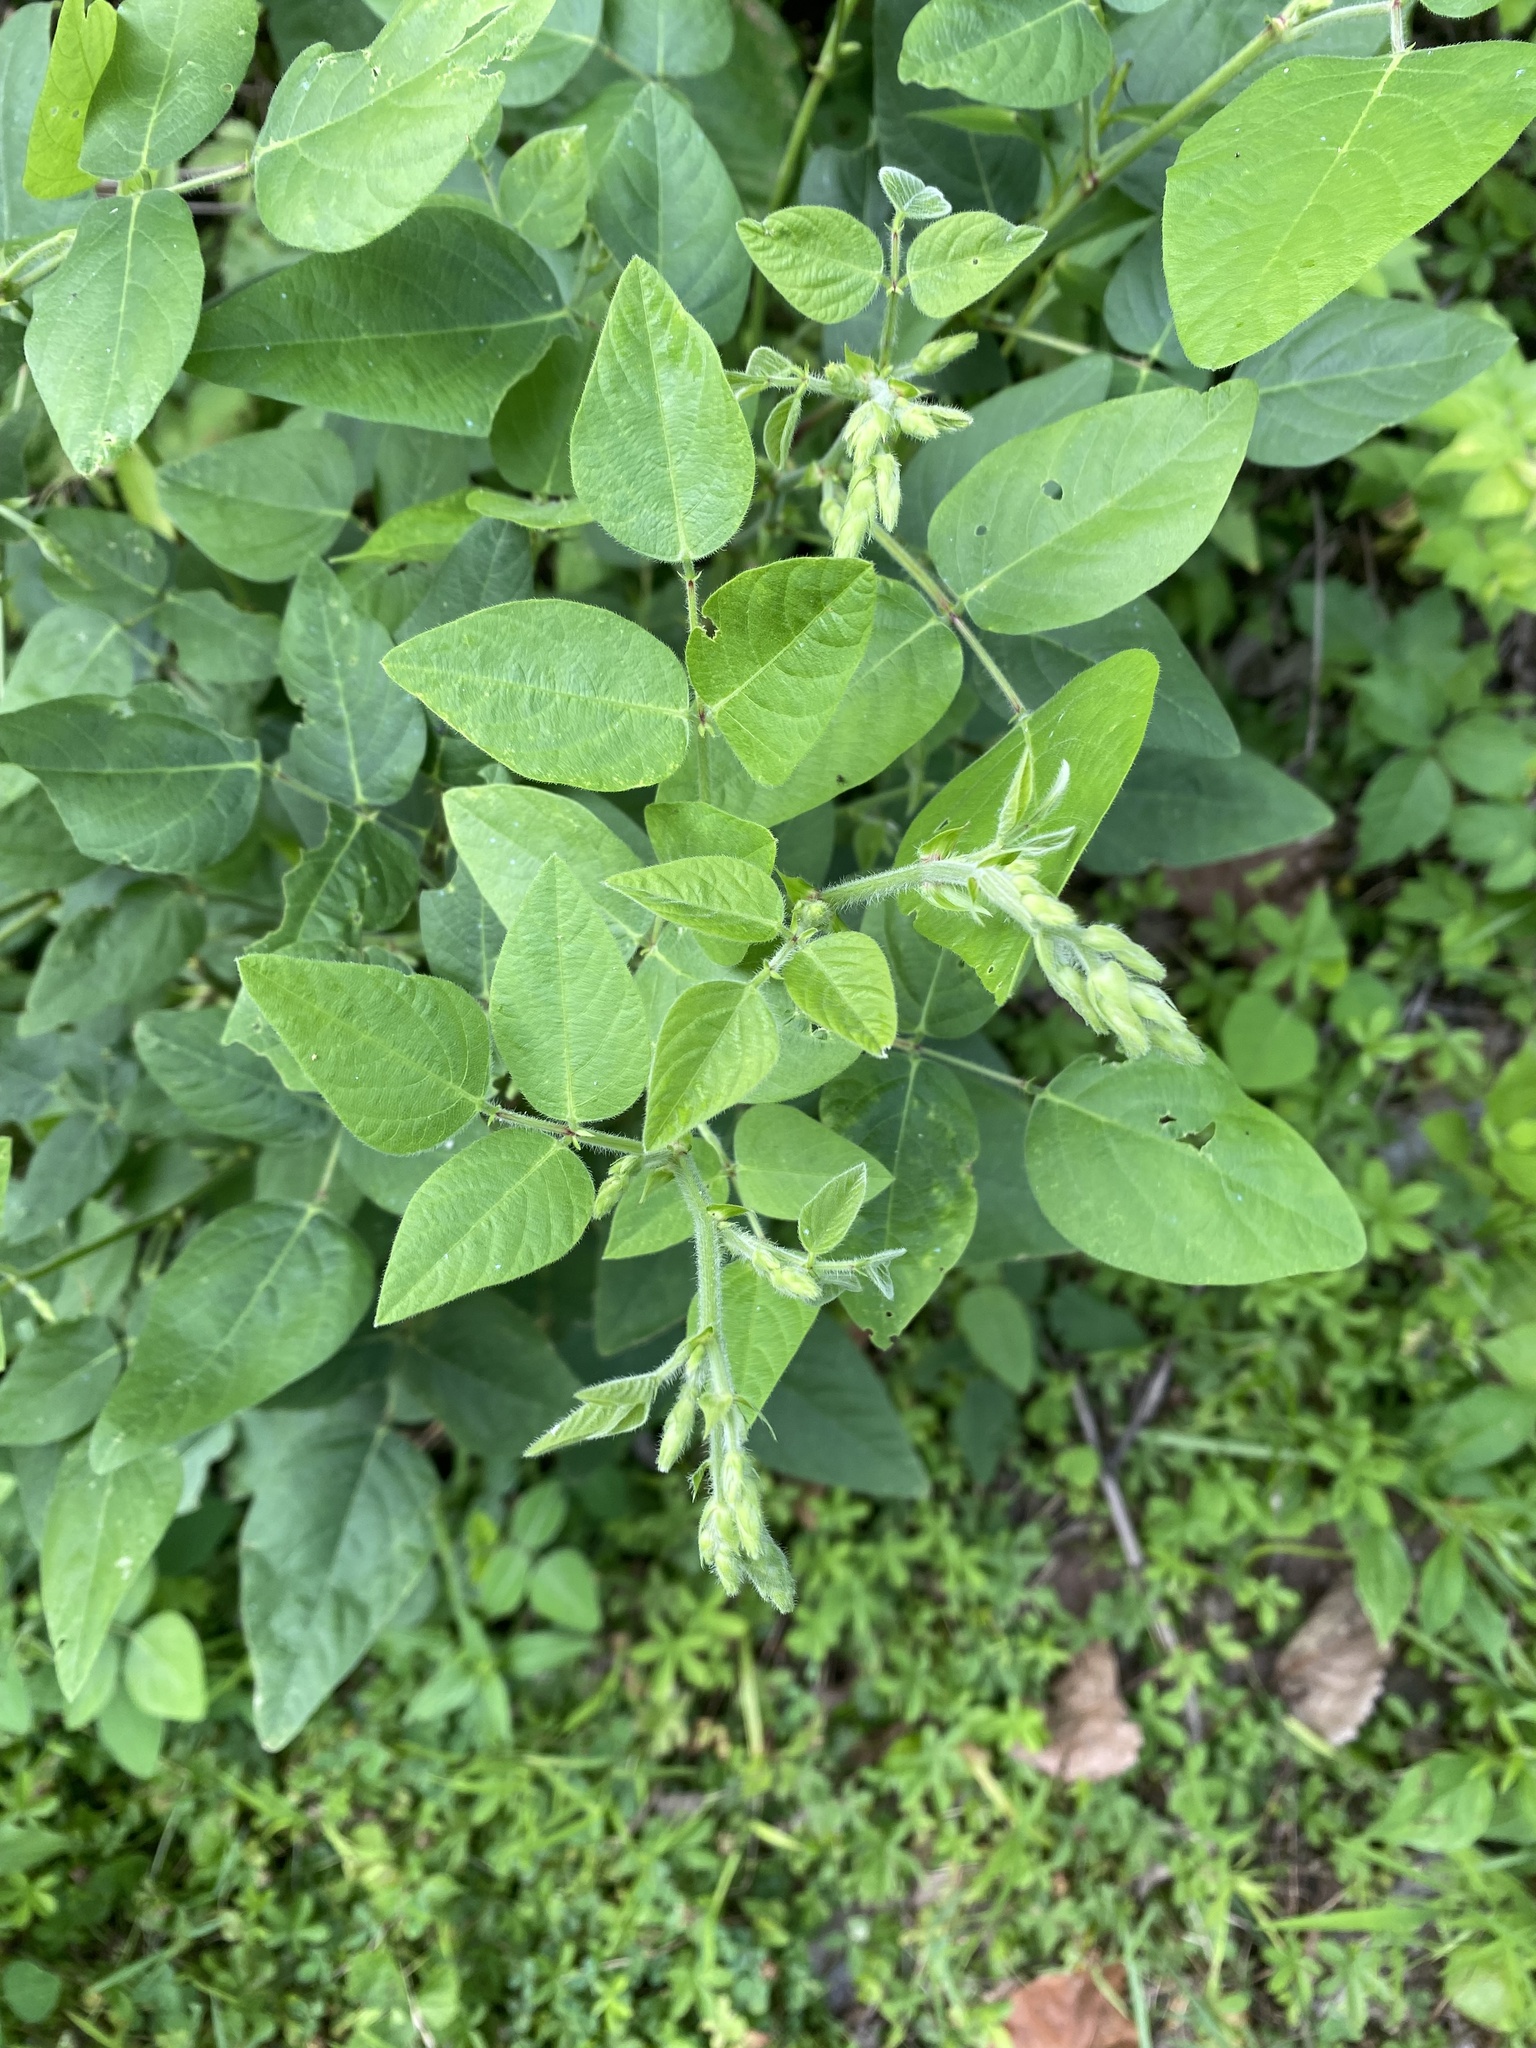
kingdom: Plantae
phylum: Tracheophyta
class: Magnoliopsida
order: Fabales
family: Fabaceae
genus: Desmodium
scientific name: Desmodium canescens
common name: Hoary tick-clover
